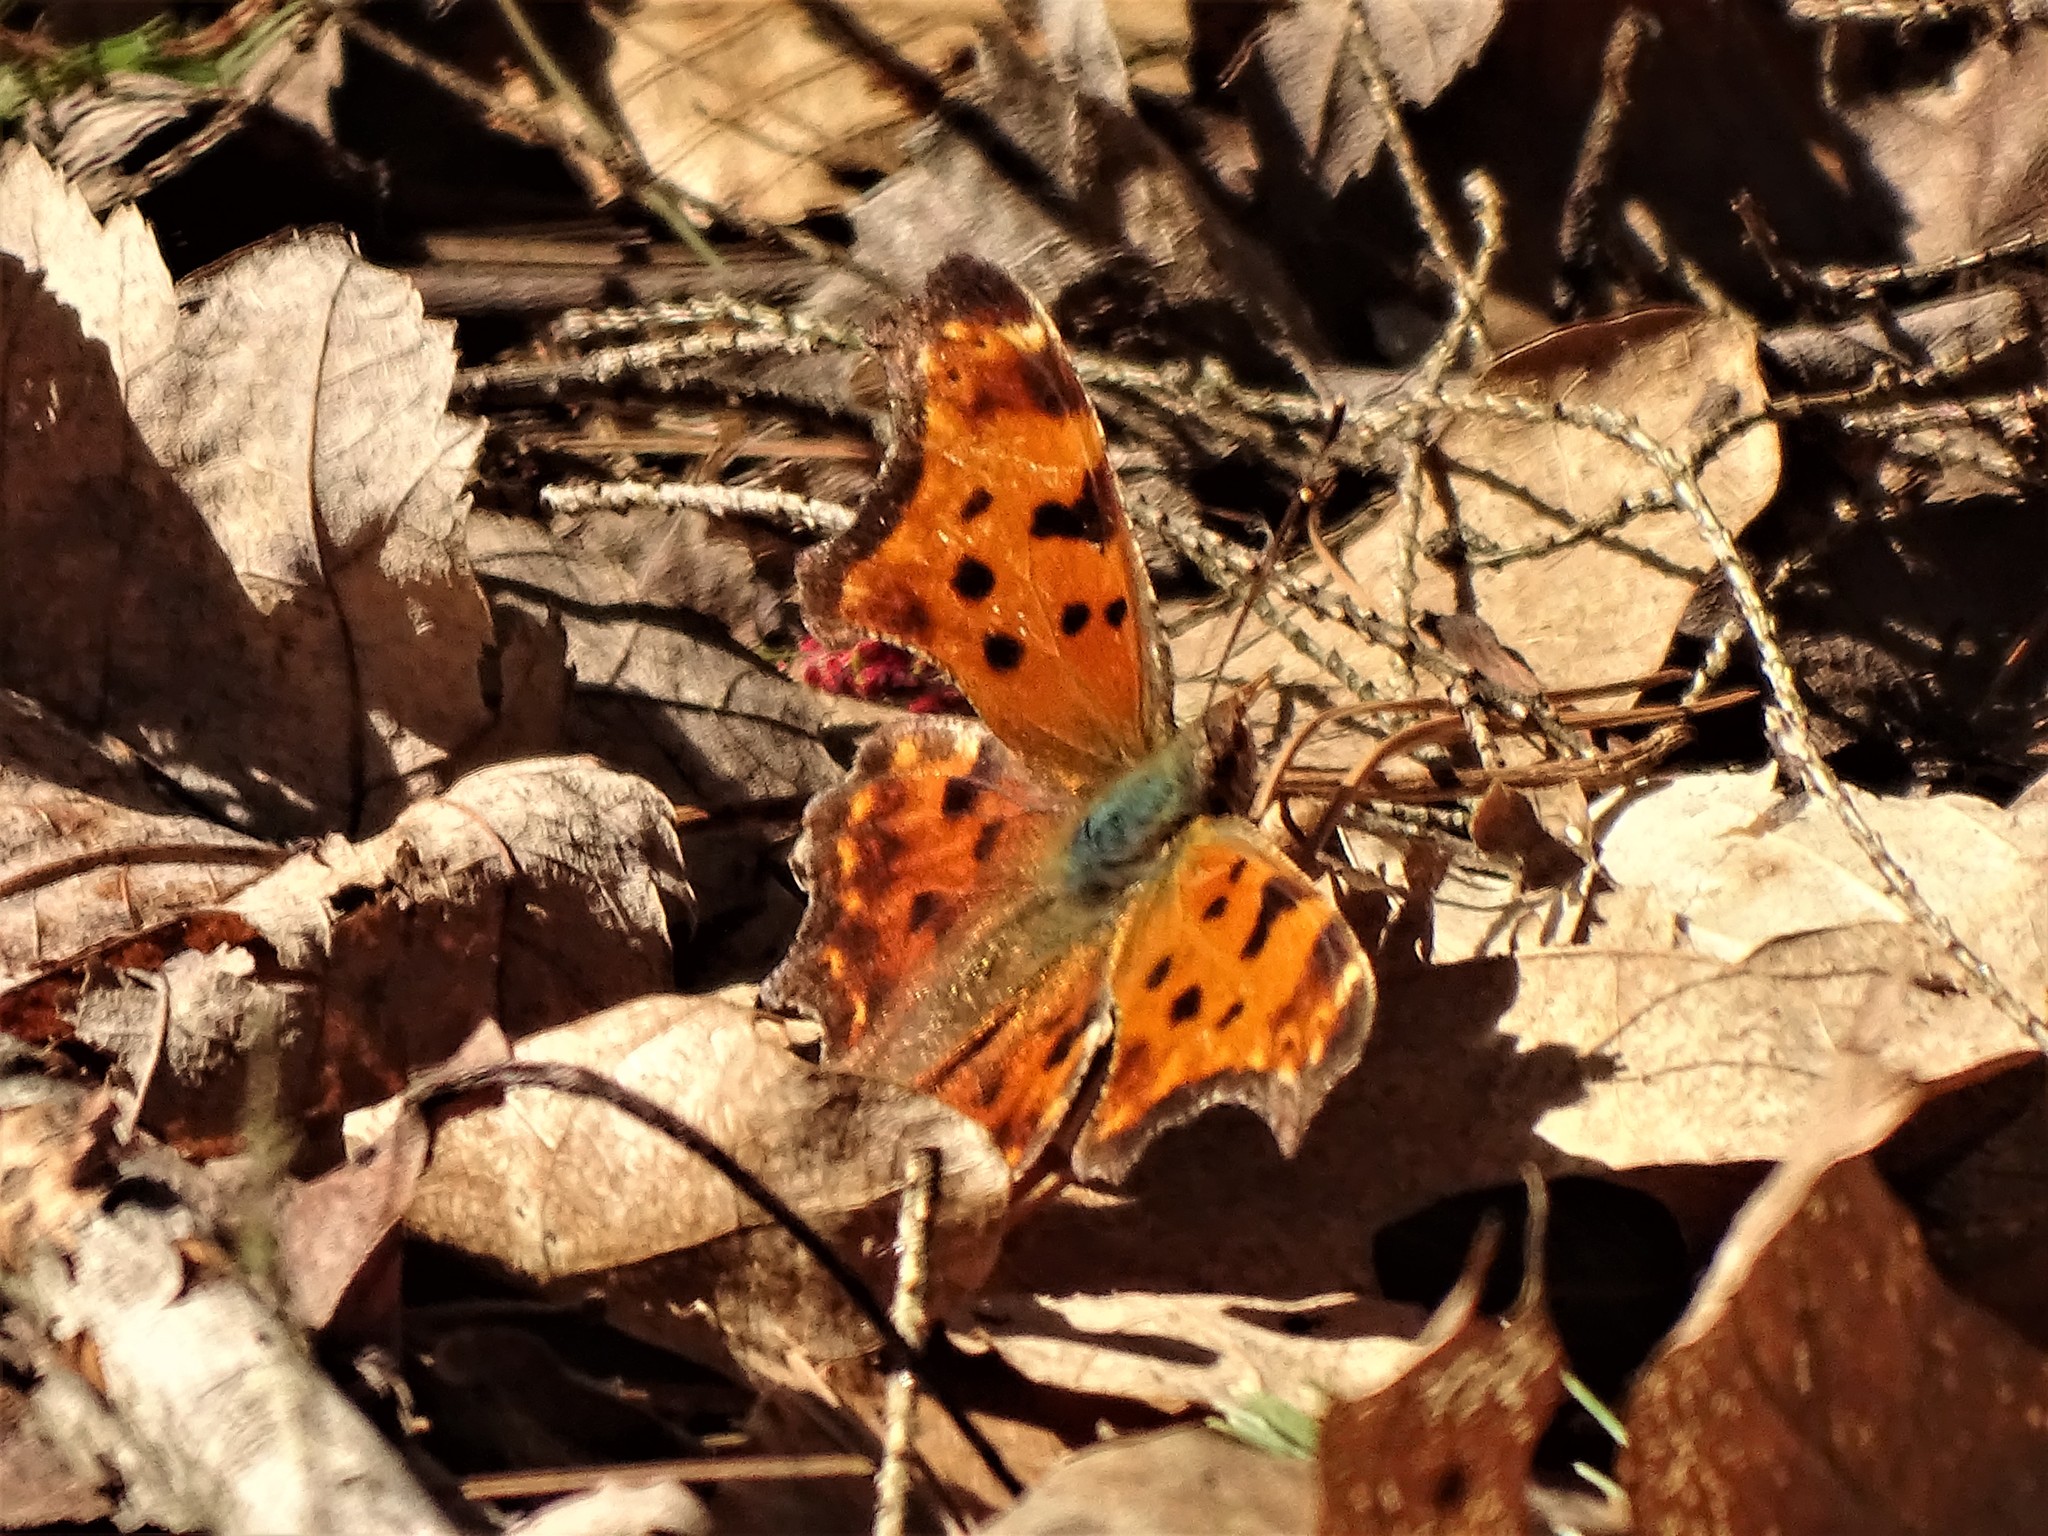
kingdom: Animalia
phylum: Arthropoda
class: Insecta
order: Lepidoptera
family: Nymphalidae
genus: Polygonia
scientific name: Polygonia comma
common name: Eastern comma
